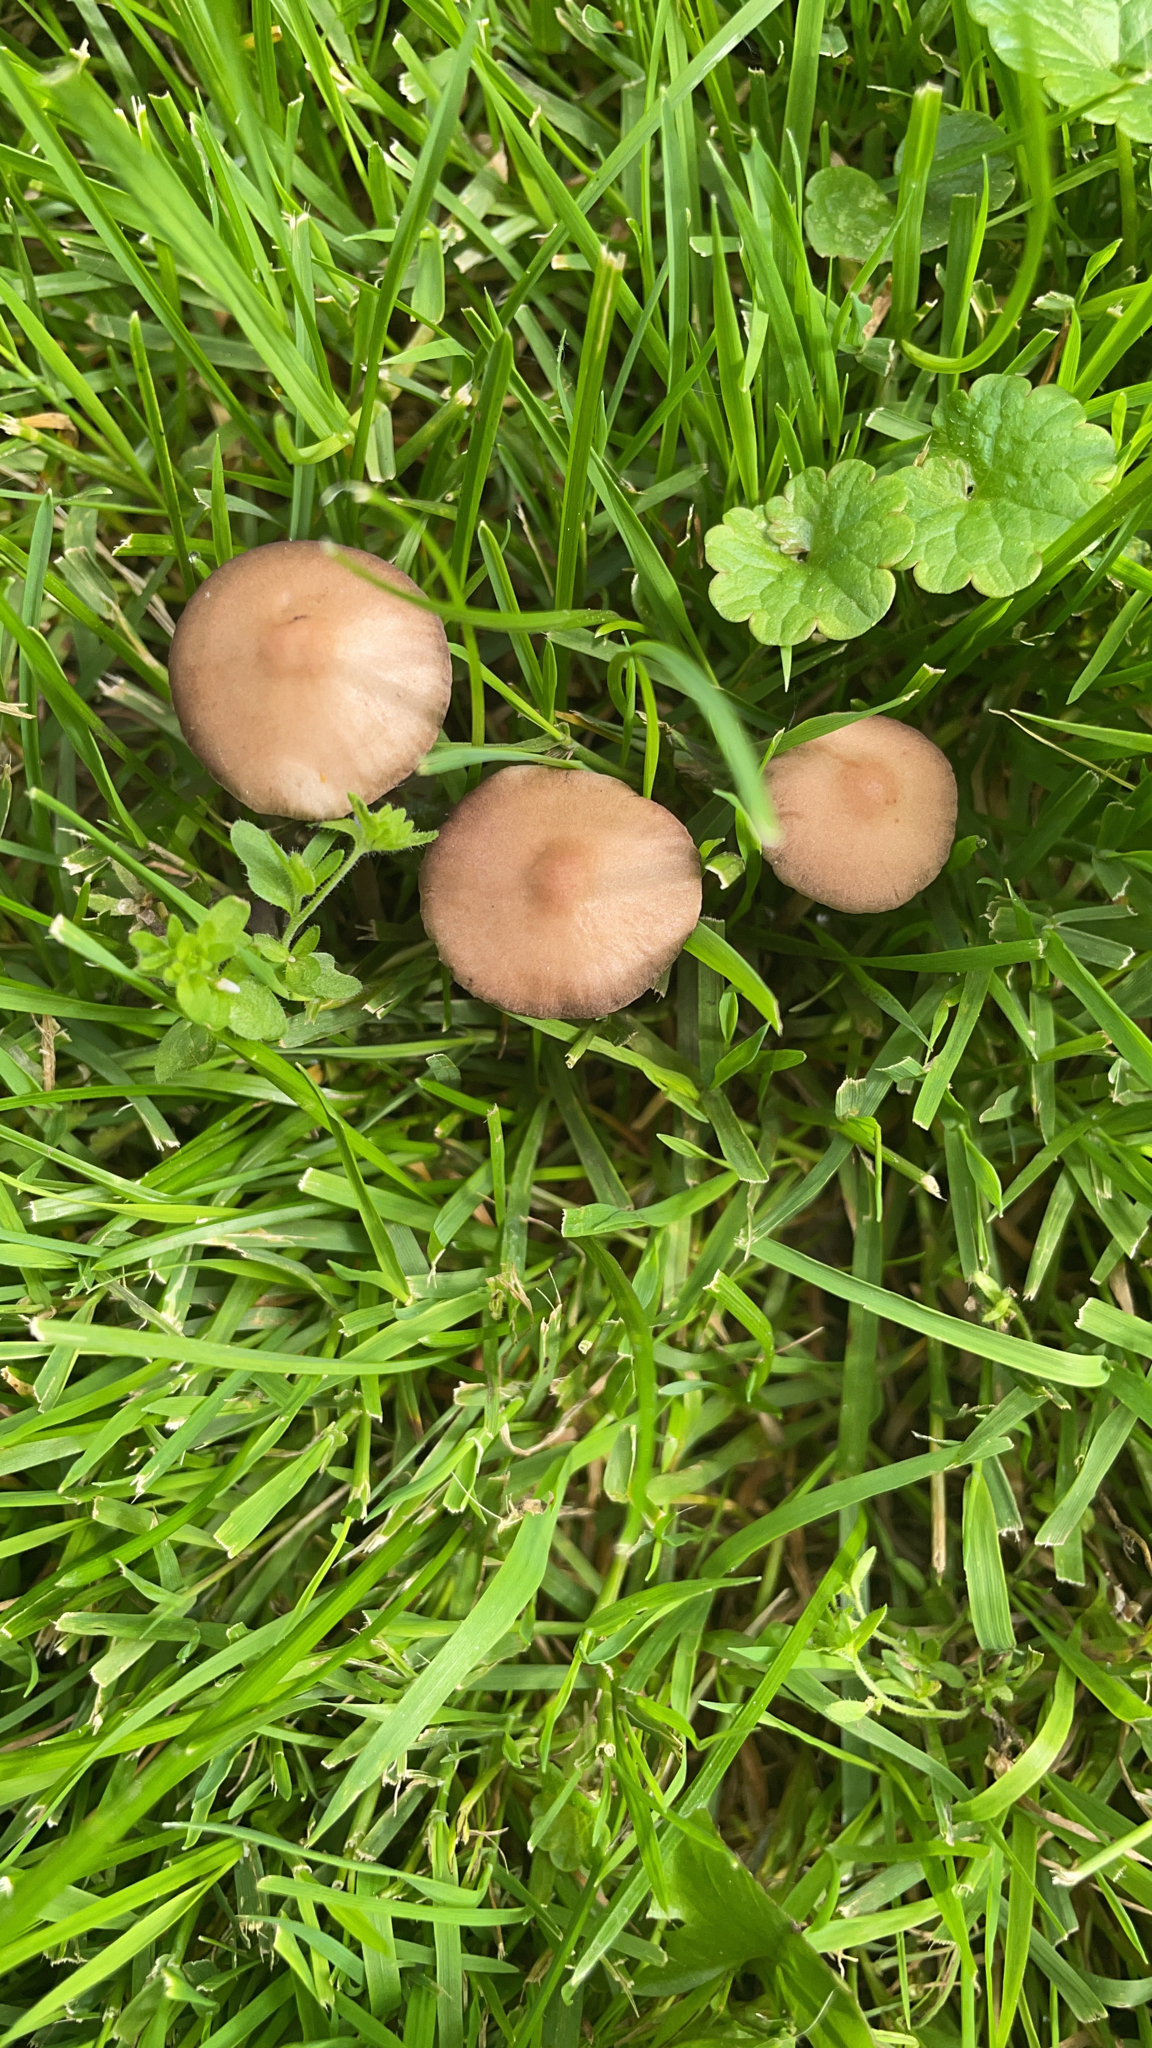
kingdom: Fungi
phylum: Basidiomycota
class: Agaricomycetes
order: Agaricales
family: Bolbitiaceae
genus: Panaeolina
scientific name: Panaeolina foenisecii
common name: Brown hay cap
